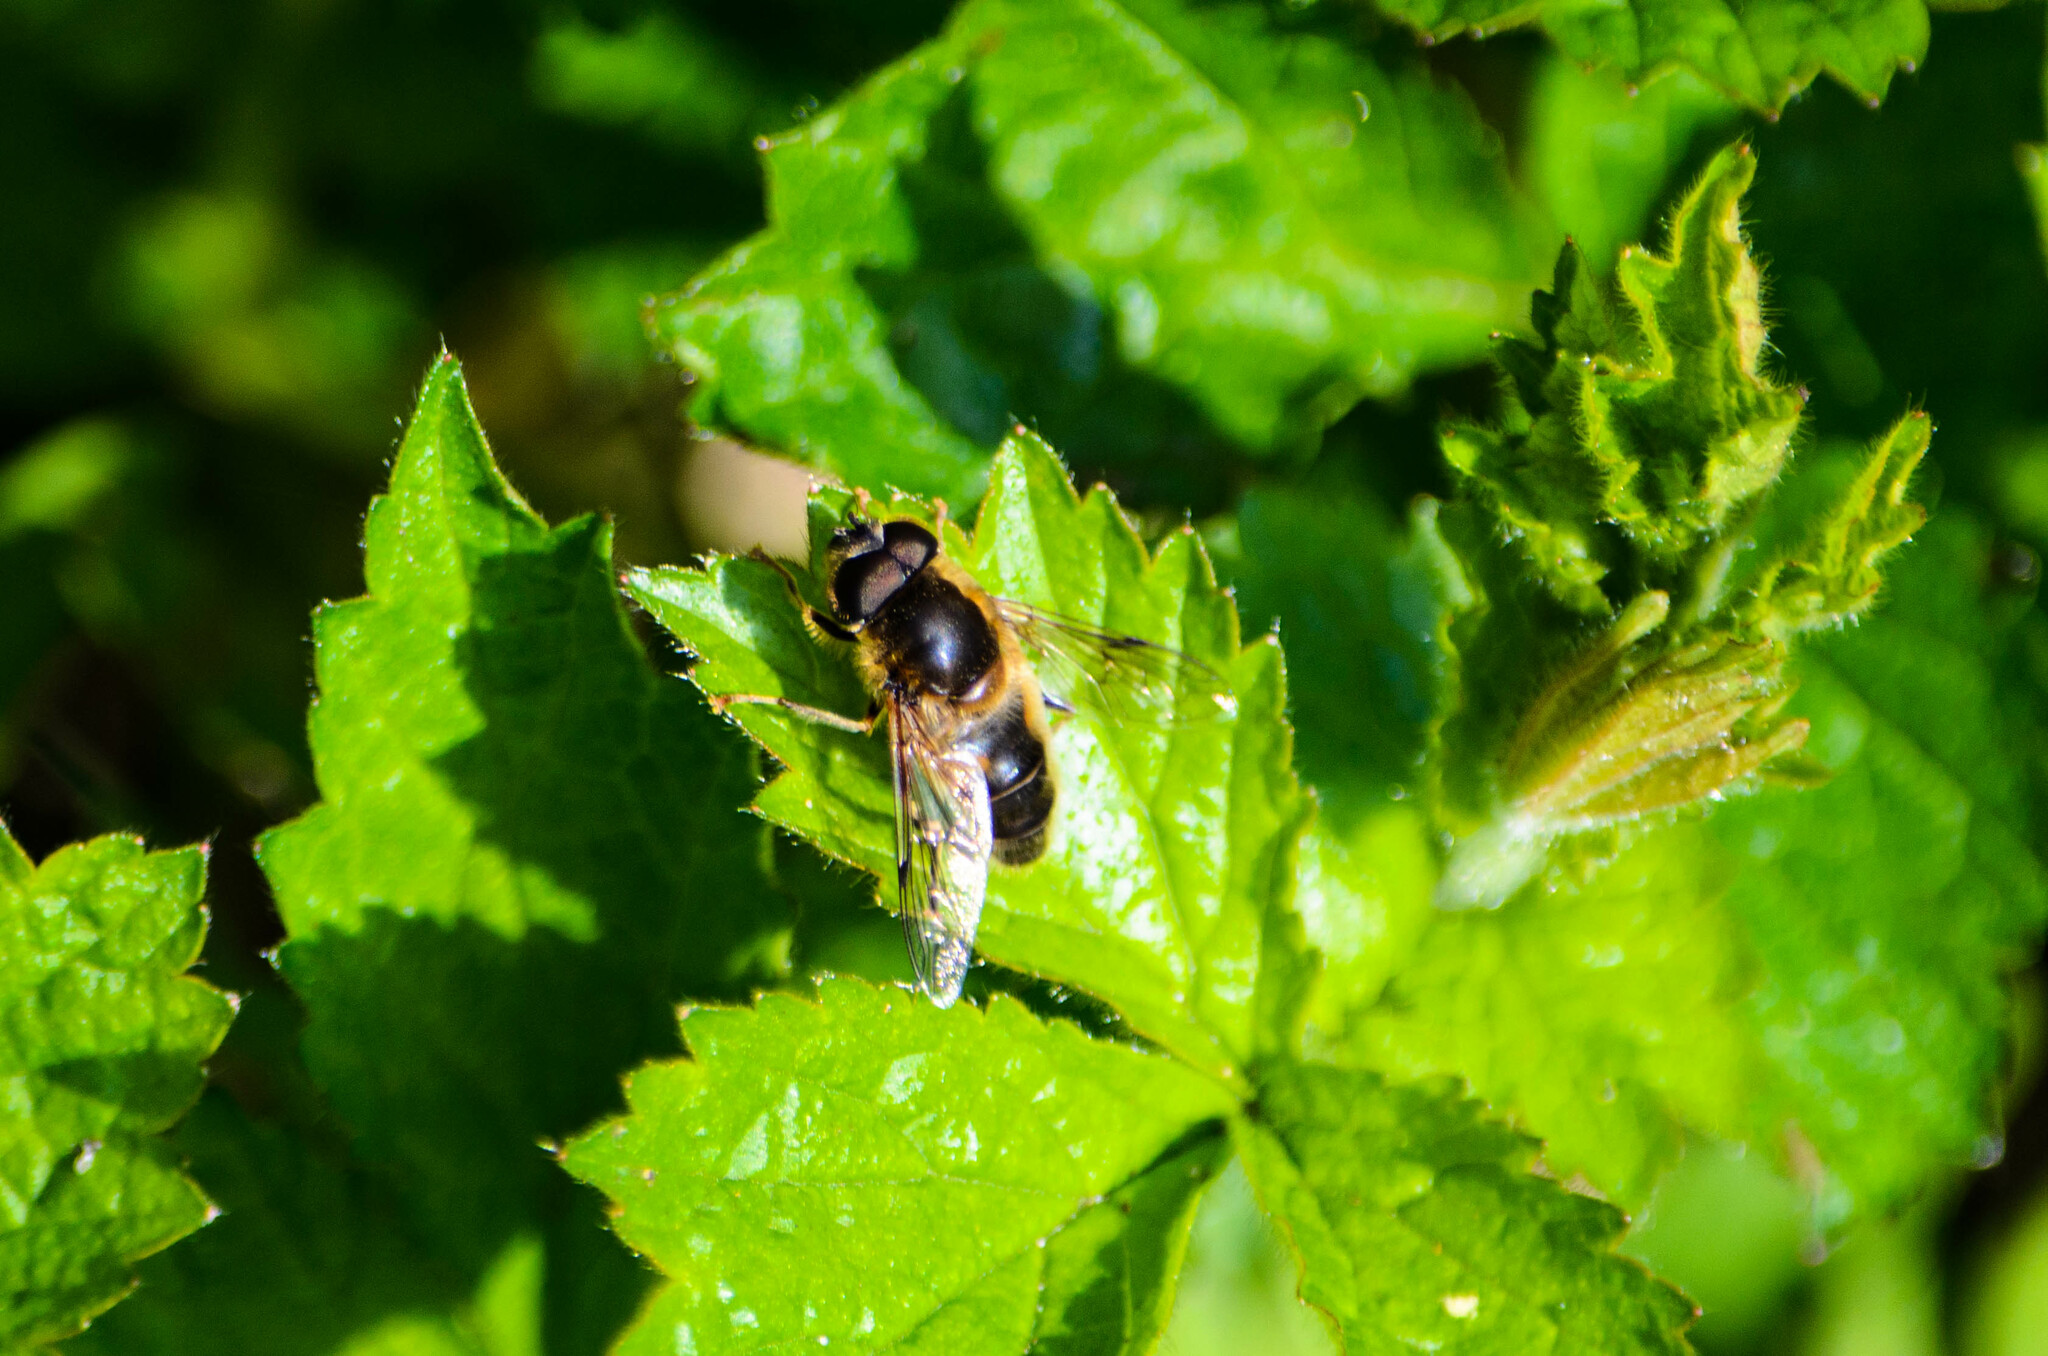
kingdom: Animalia
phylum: Arthropoda
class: Insecta
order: Diptera
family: Syrphidae
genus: Eristalis
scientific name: Eristalis pertinax
